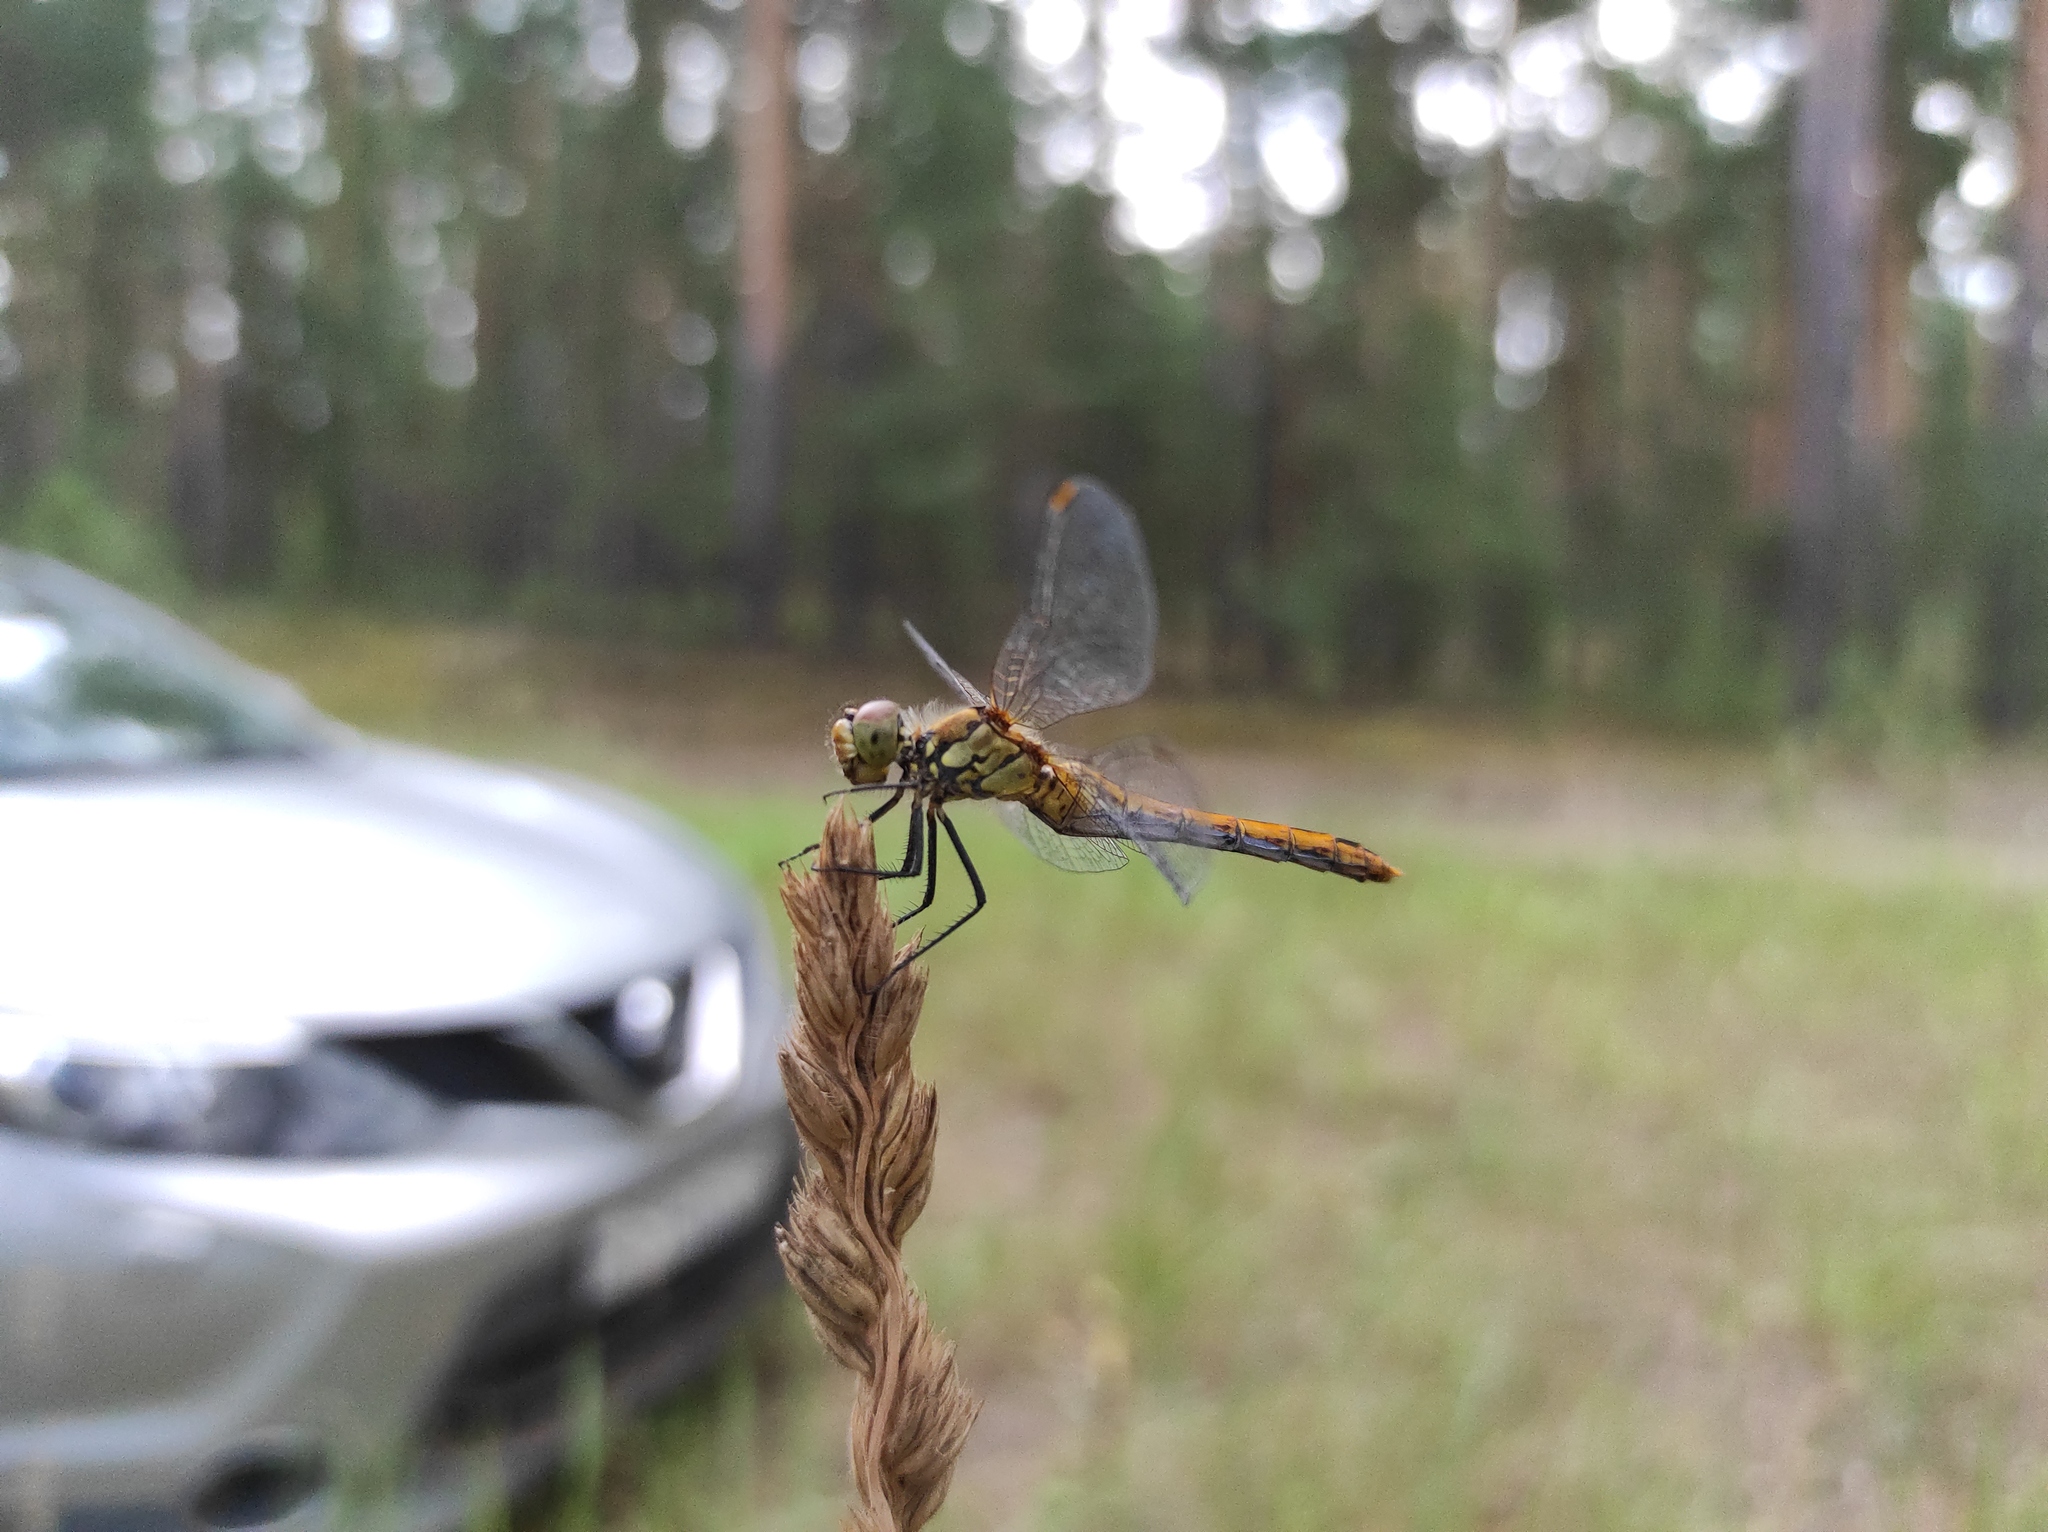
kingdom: Animalia
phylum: Arthropoda
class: Insecta
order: Odonata
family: Libellulidae
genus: Sympetrum
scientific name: Sympetrum sanguineum
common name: Ruddy darter
